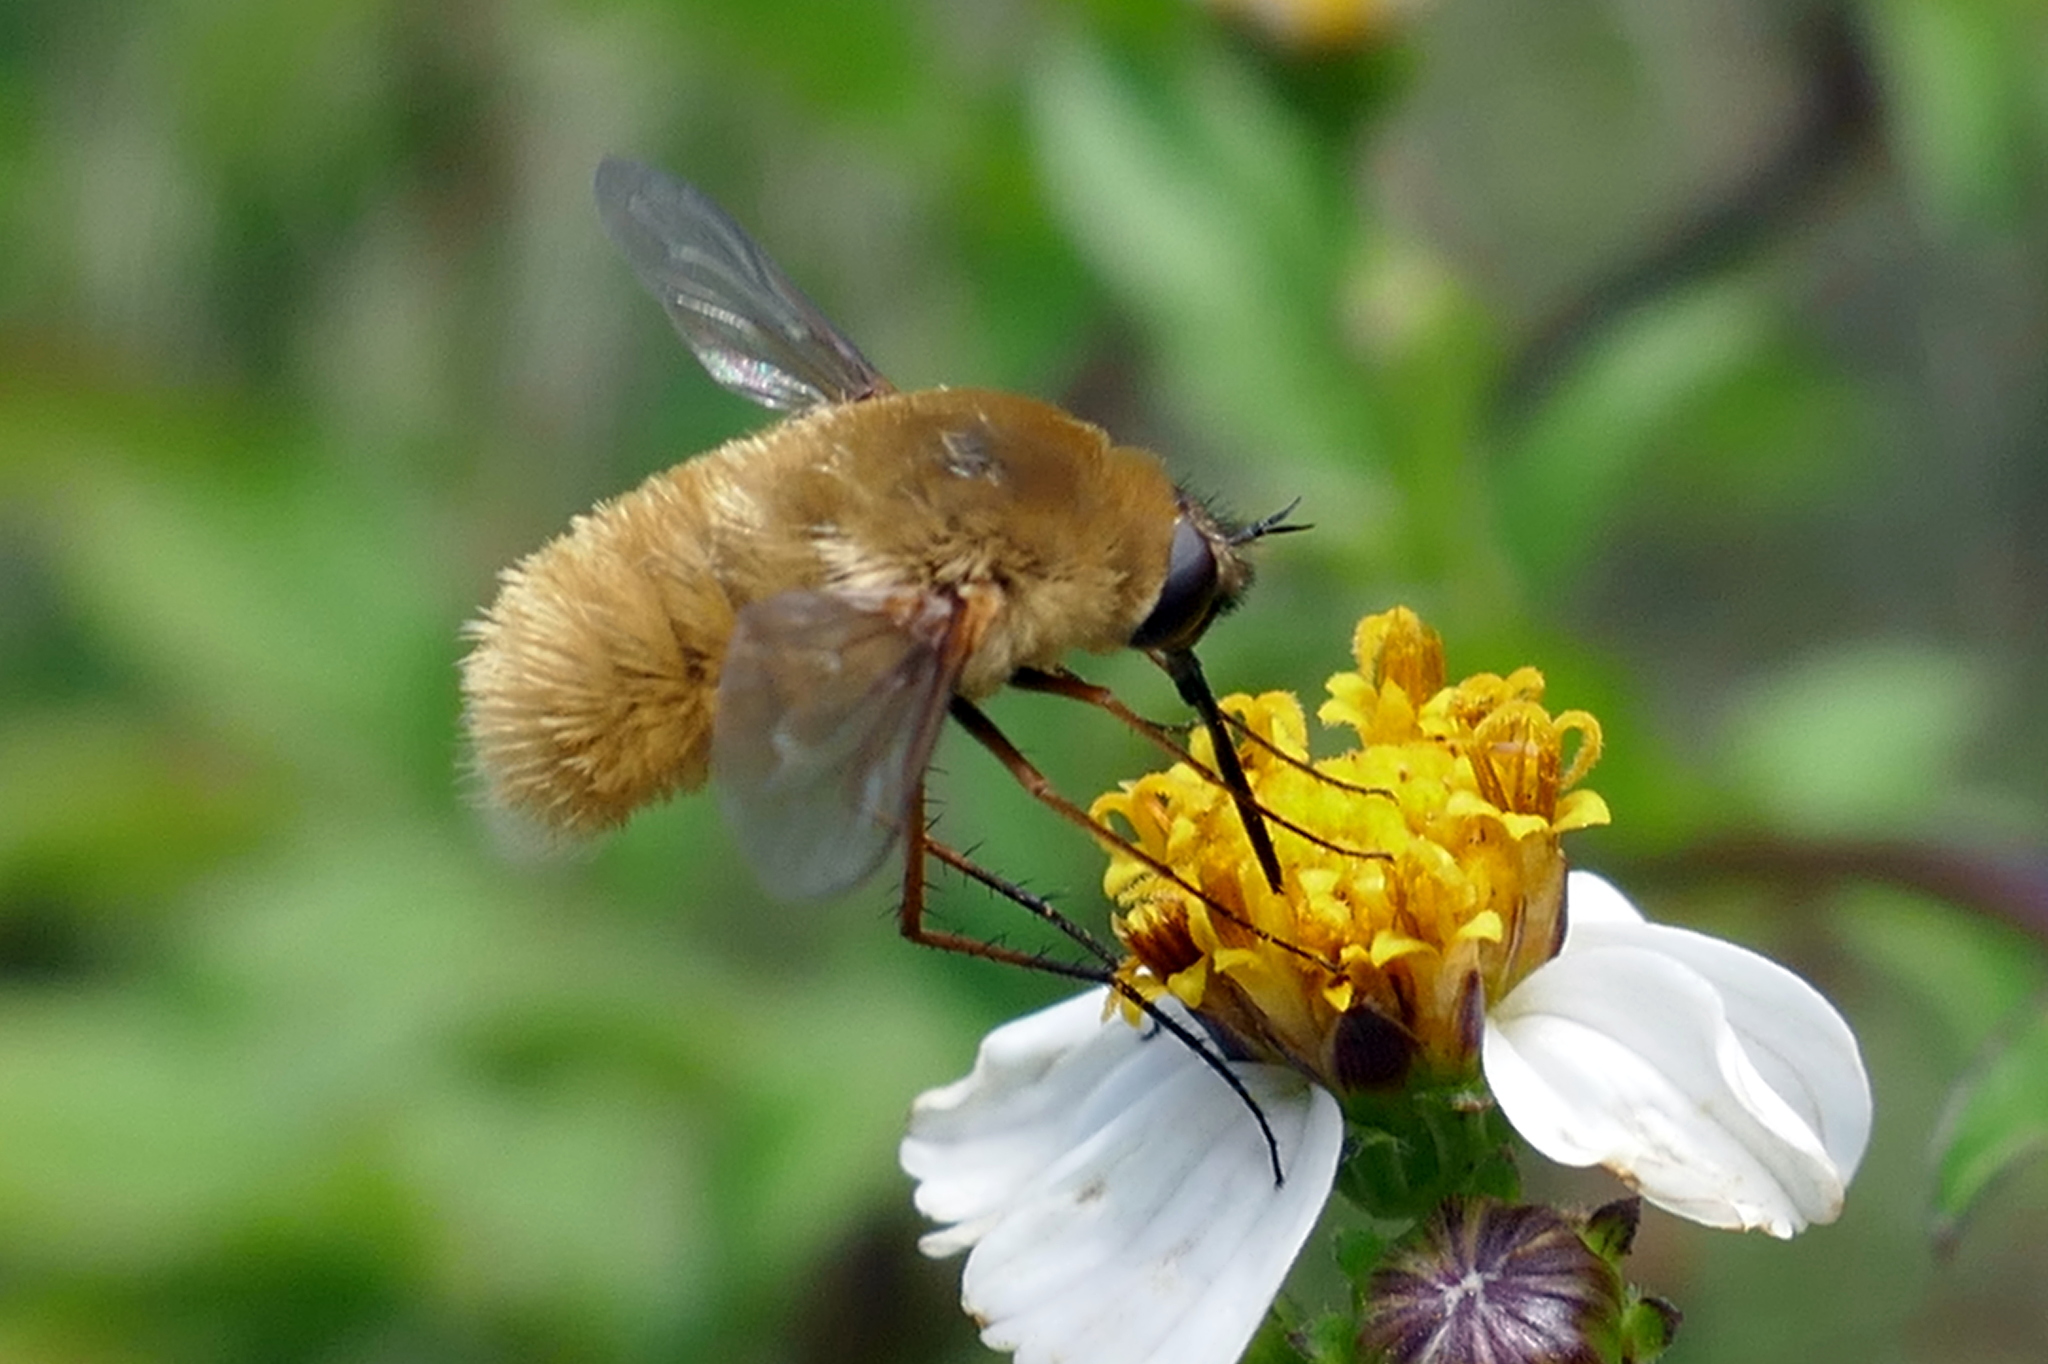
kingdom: Animalia
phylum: Arthropoda
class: Insecta
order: Diptera
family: Bombyliidae
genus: Systoechus
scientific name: Systoechus solitus
